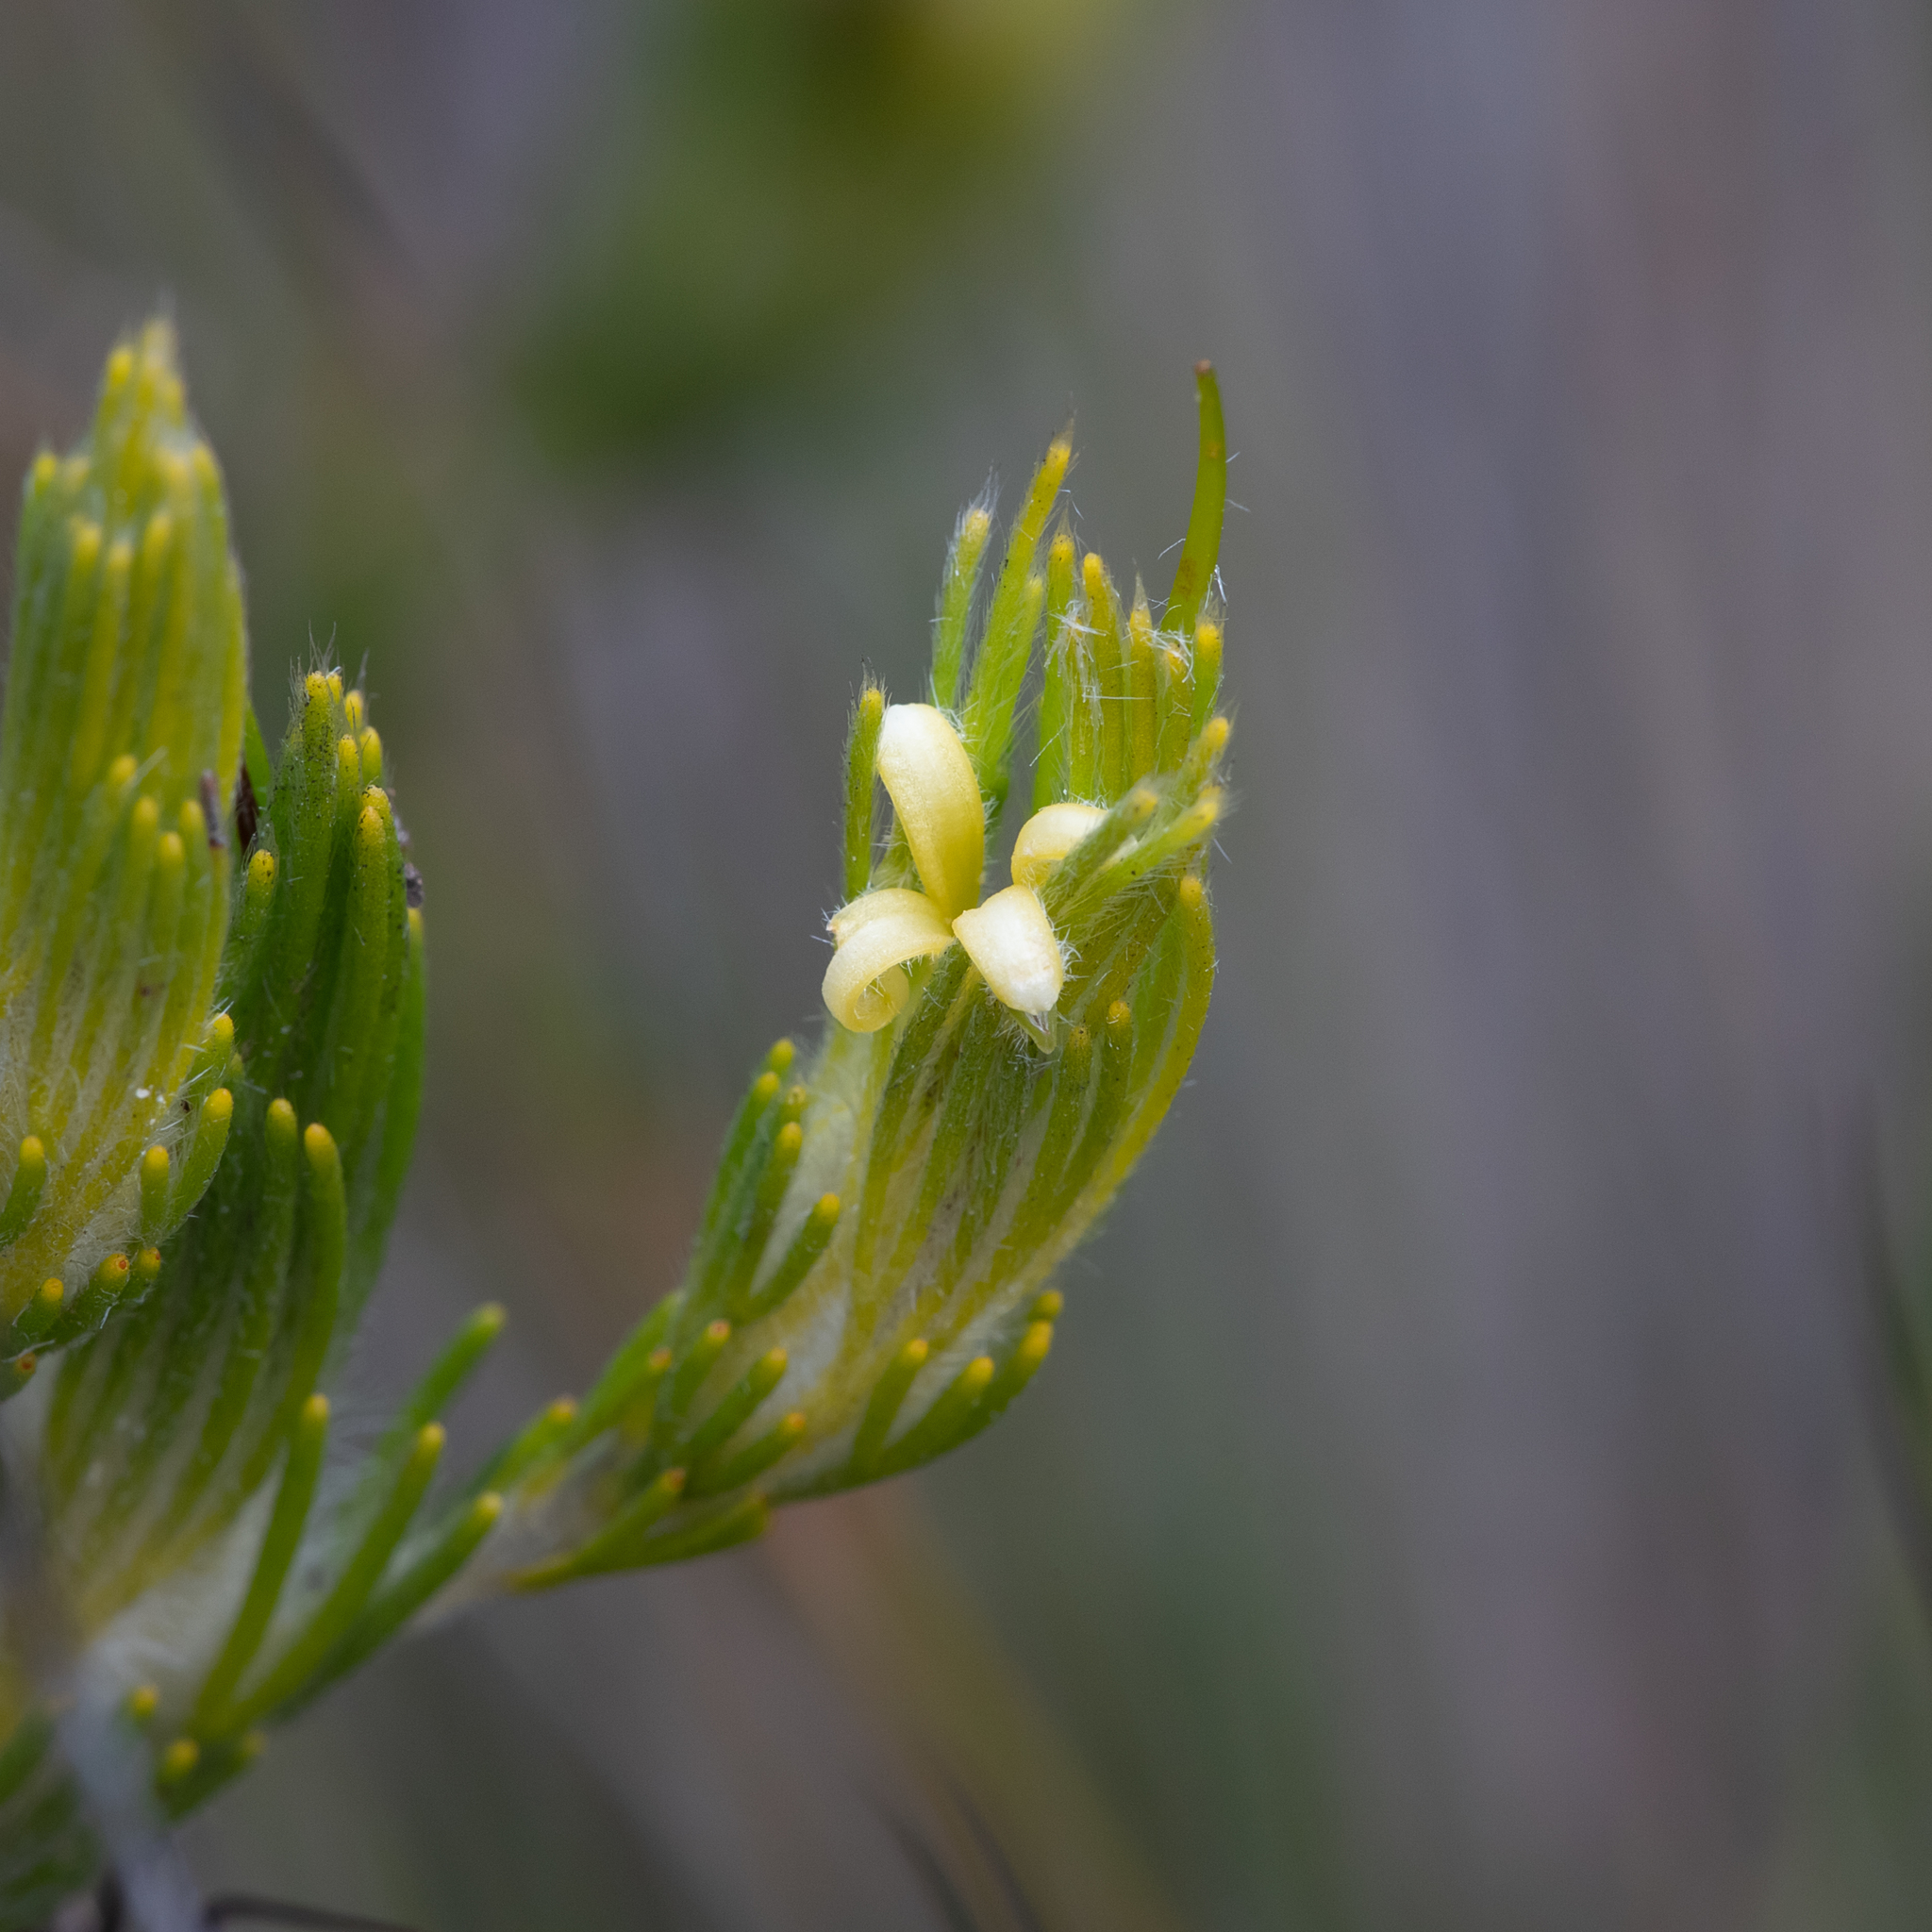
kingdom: Plantae
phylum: Tracheophyta
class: Magnoliopsida
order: Proteales
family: Proteaceae
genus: Adenanthos
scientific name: Adenanthos terminalis
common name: Yellow gland-flower
